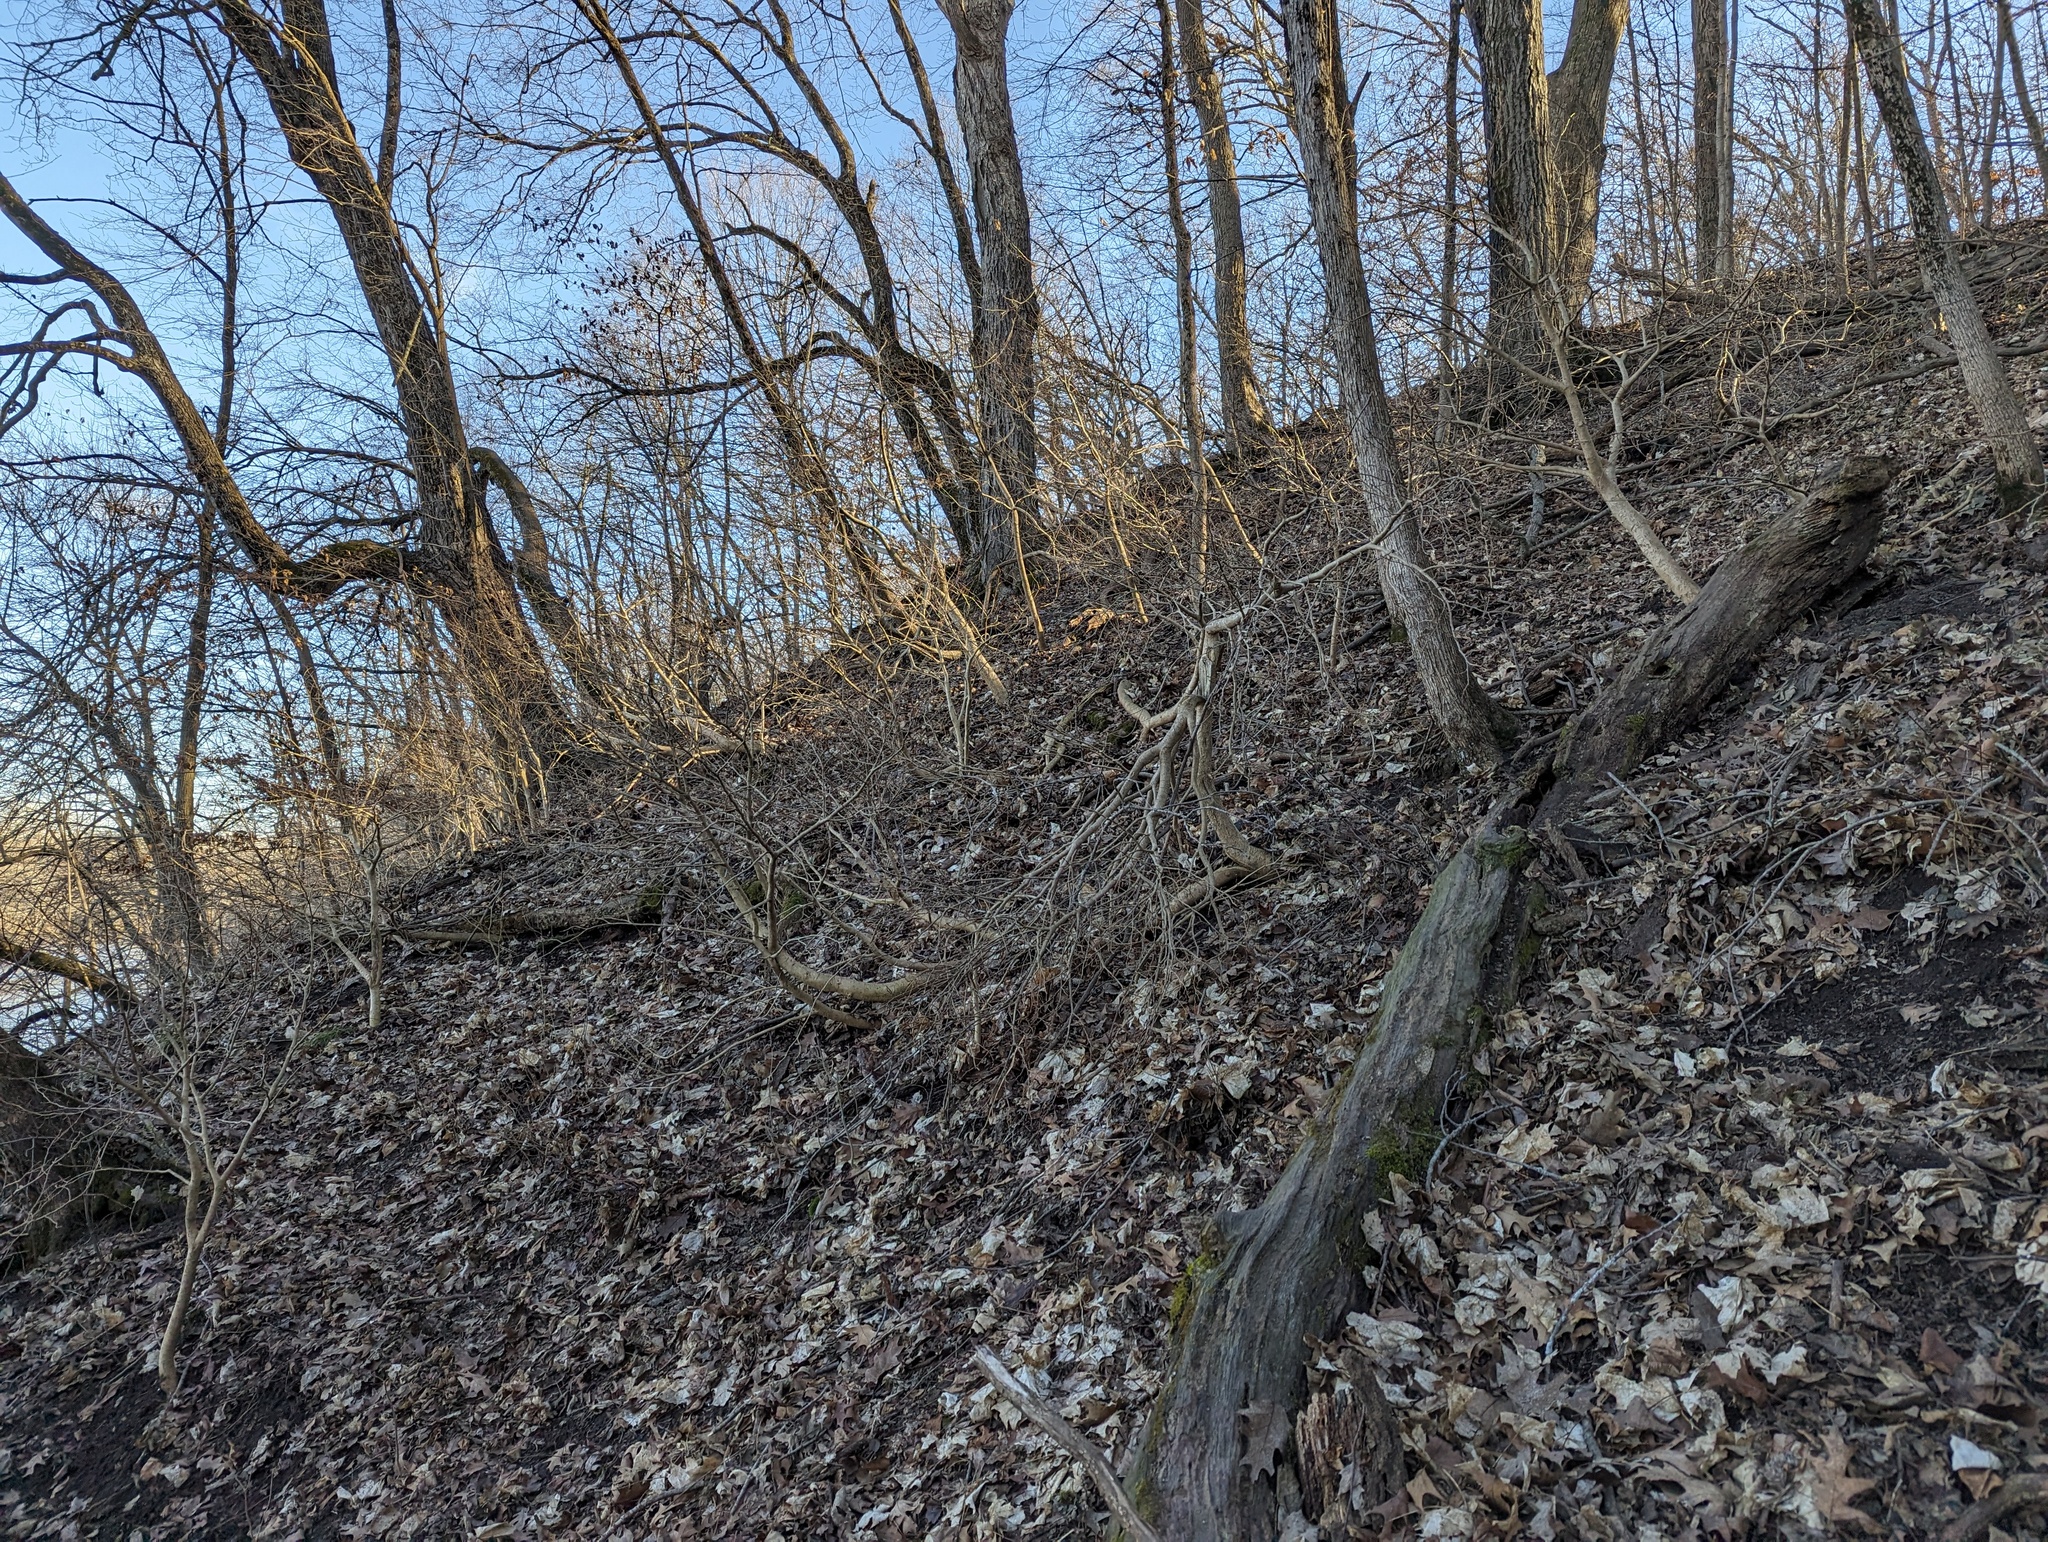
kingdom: Plantae
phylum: Tracheophyta
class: Magnoliopsida
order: Malvales
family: Thymelaeaceae
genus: Dirca
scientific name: Dirca palustris
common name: Leatherwood
